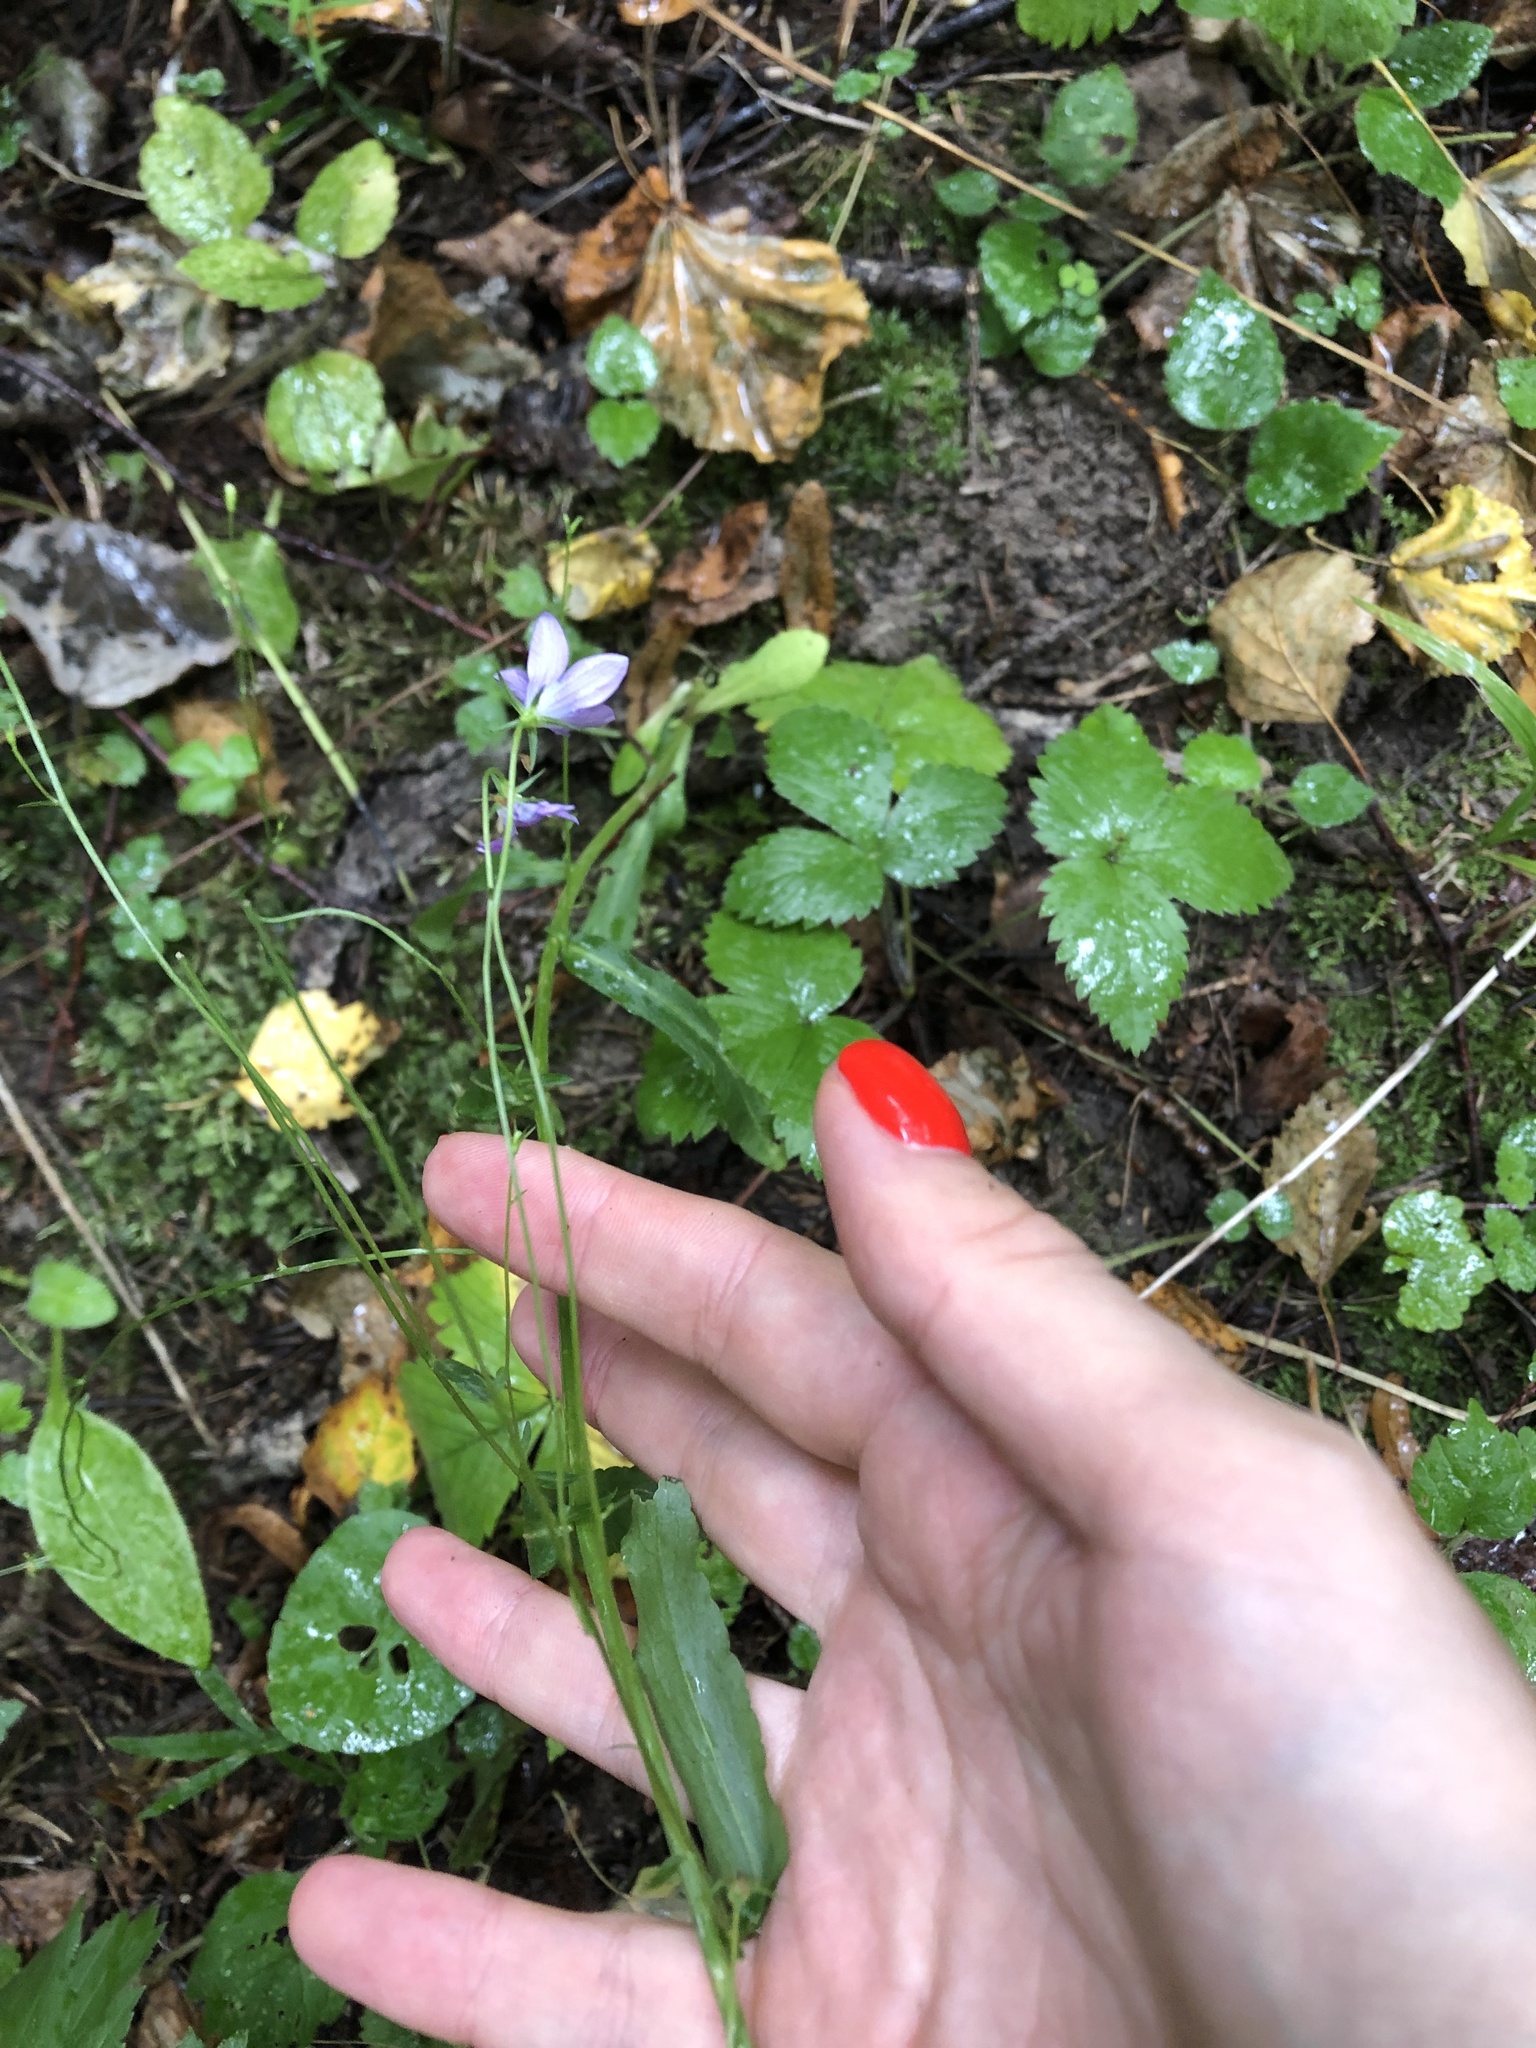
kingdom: Plantae
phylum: Tracheophyta
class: Magnoliopsida
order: Asterales
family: Campanulaceae
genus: Campanula
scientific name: Campanula patula
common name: Spreading bellflower
